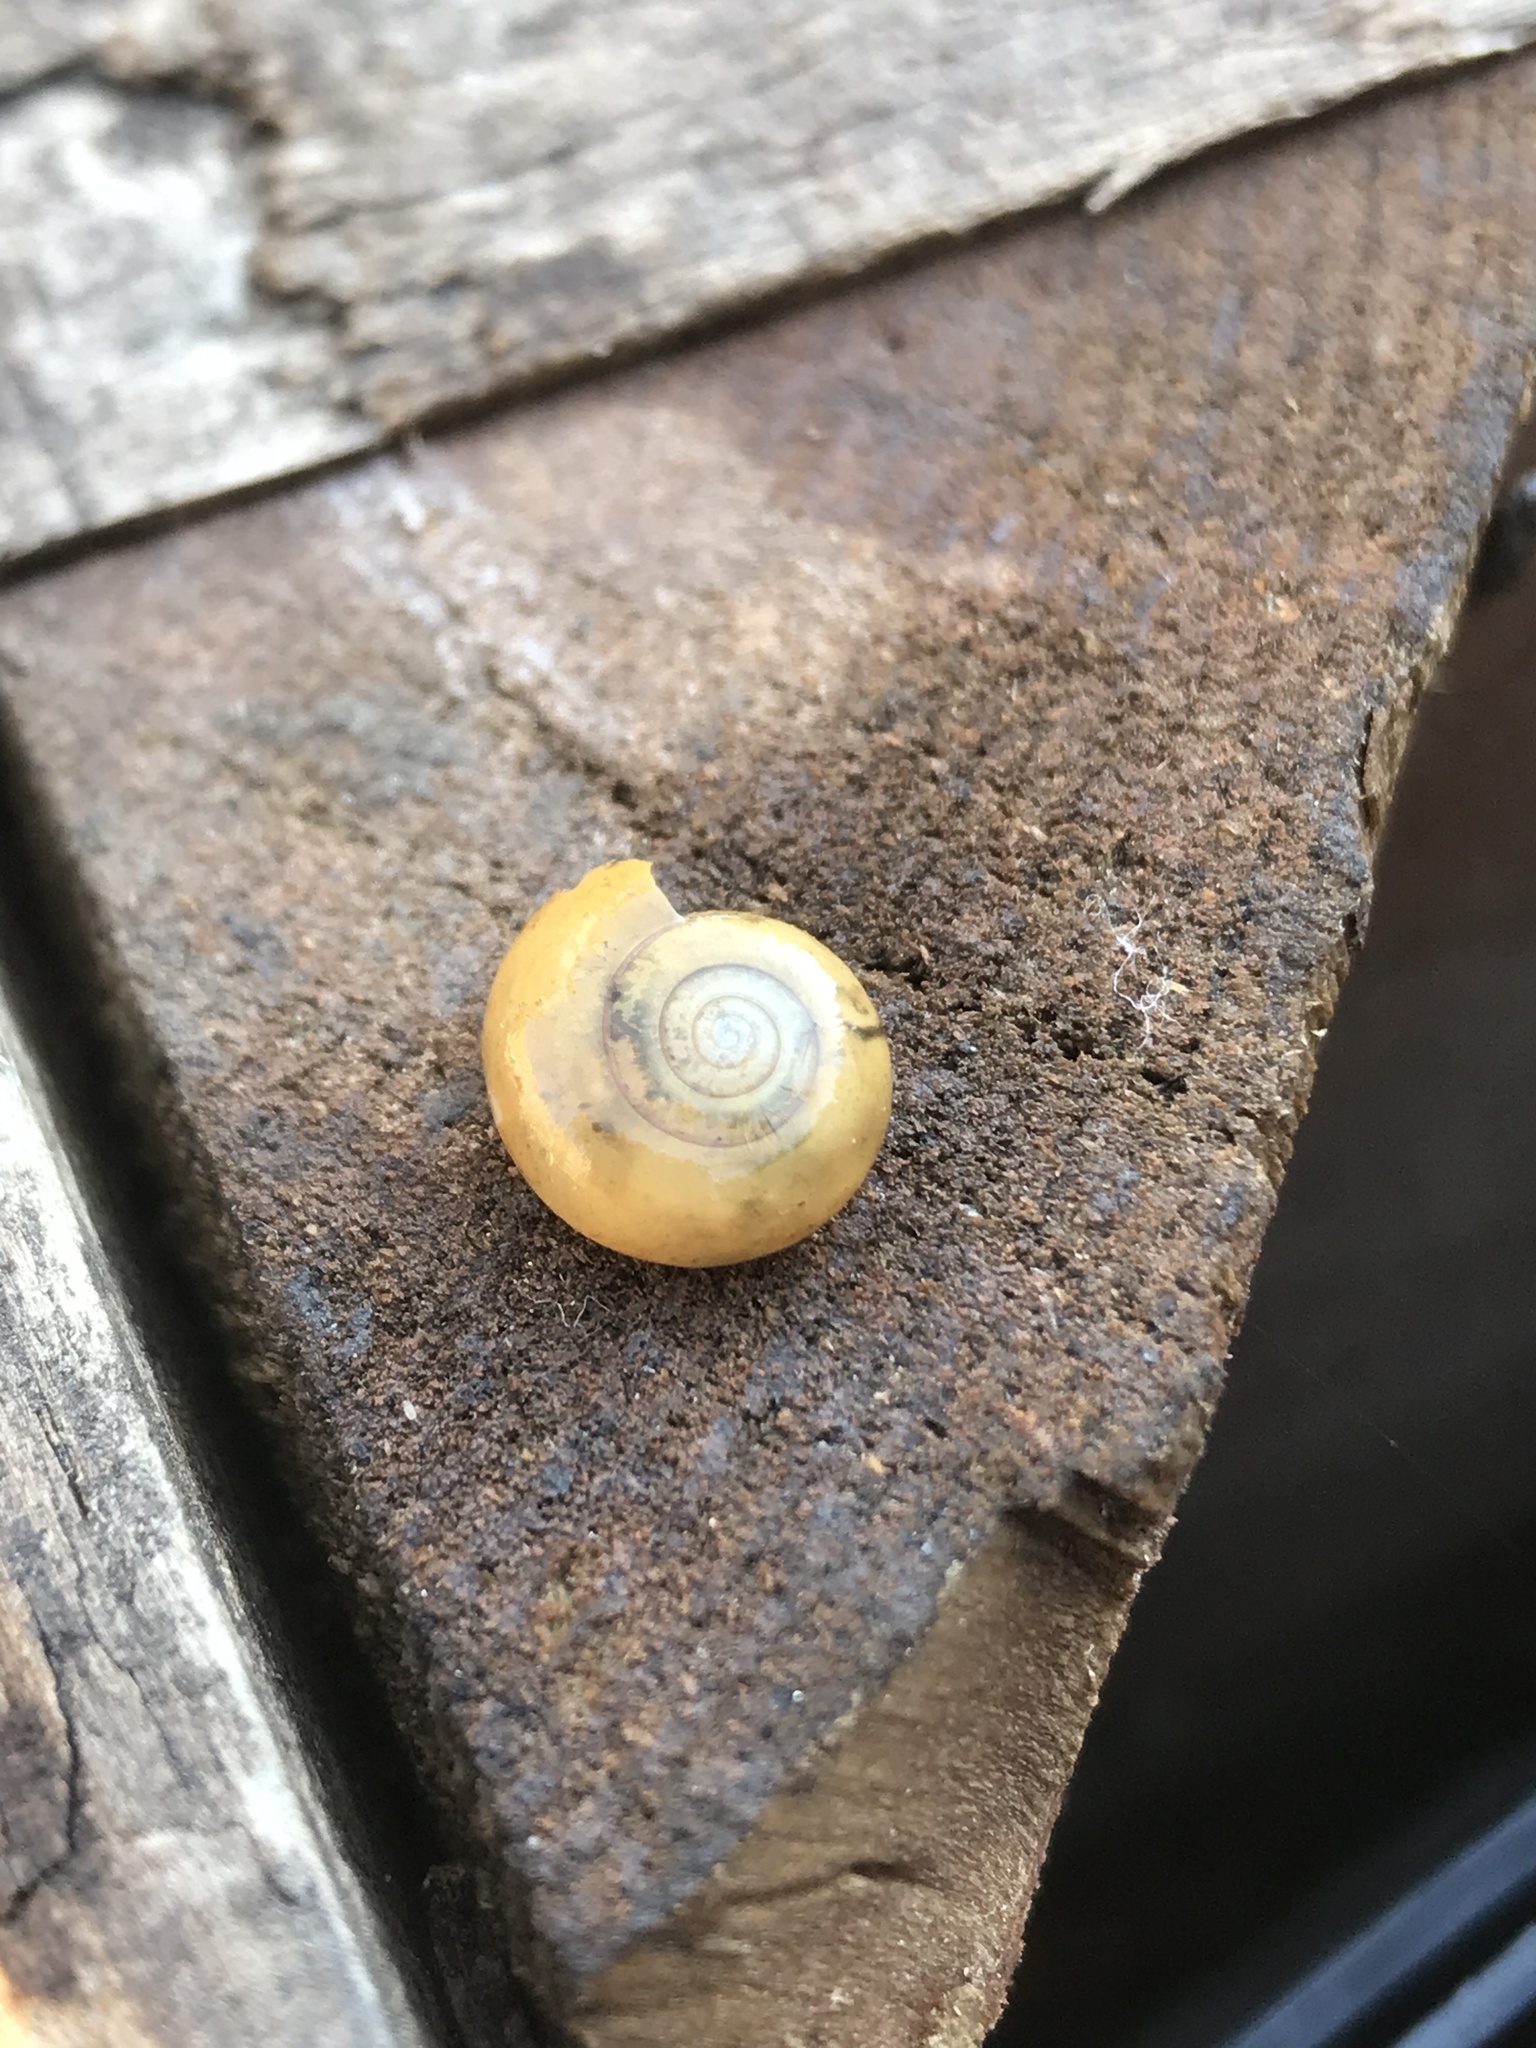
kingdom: Animalia
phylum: Mollusca
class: Gastropoda
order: Stylommatophora
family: Oxychilidae
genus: Oxychilus
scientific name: Oxychilus draparnaudi
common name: Draparnaud's glass snail
